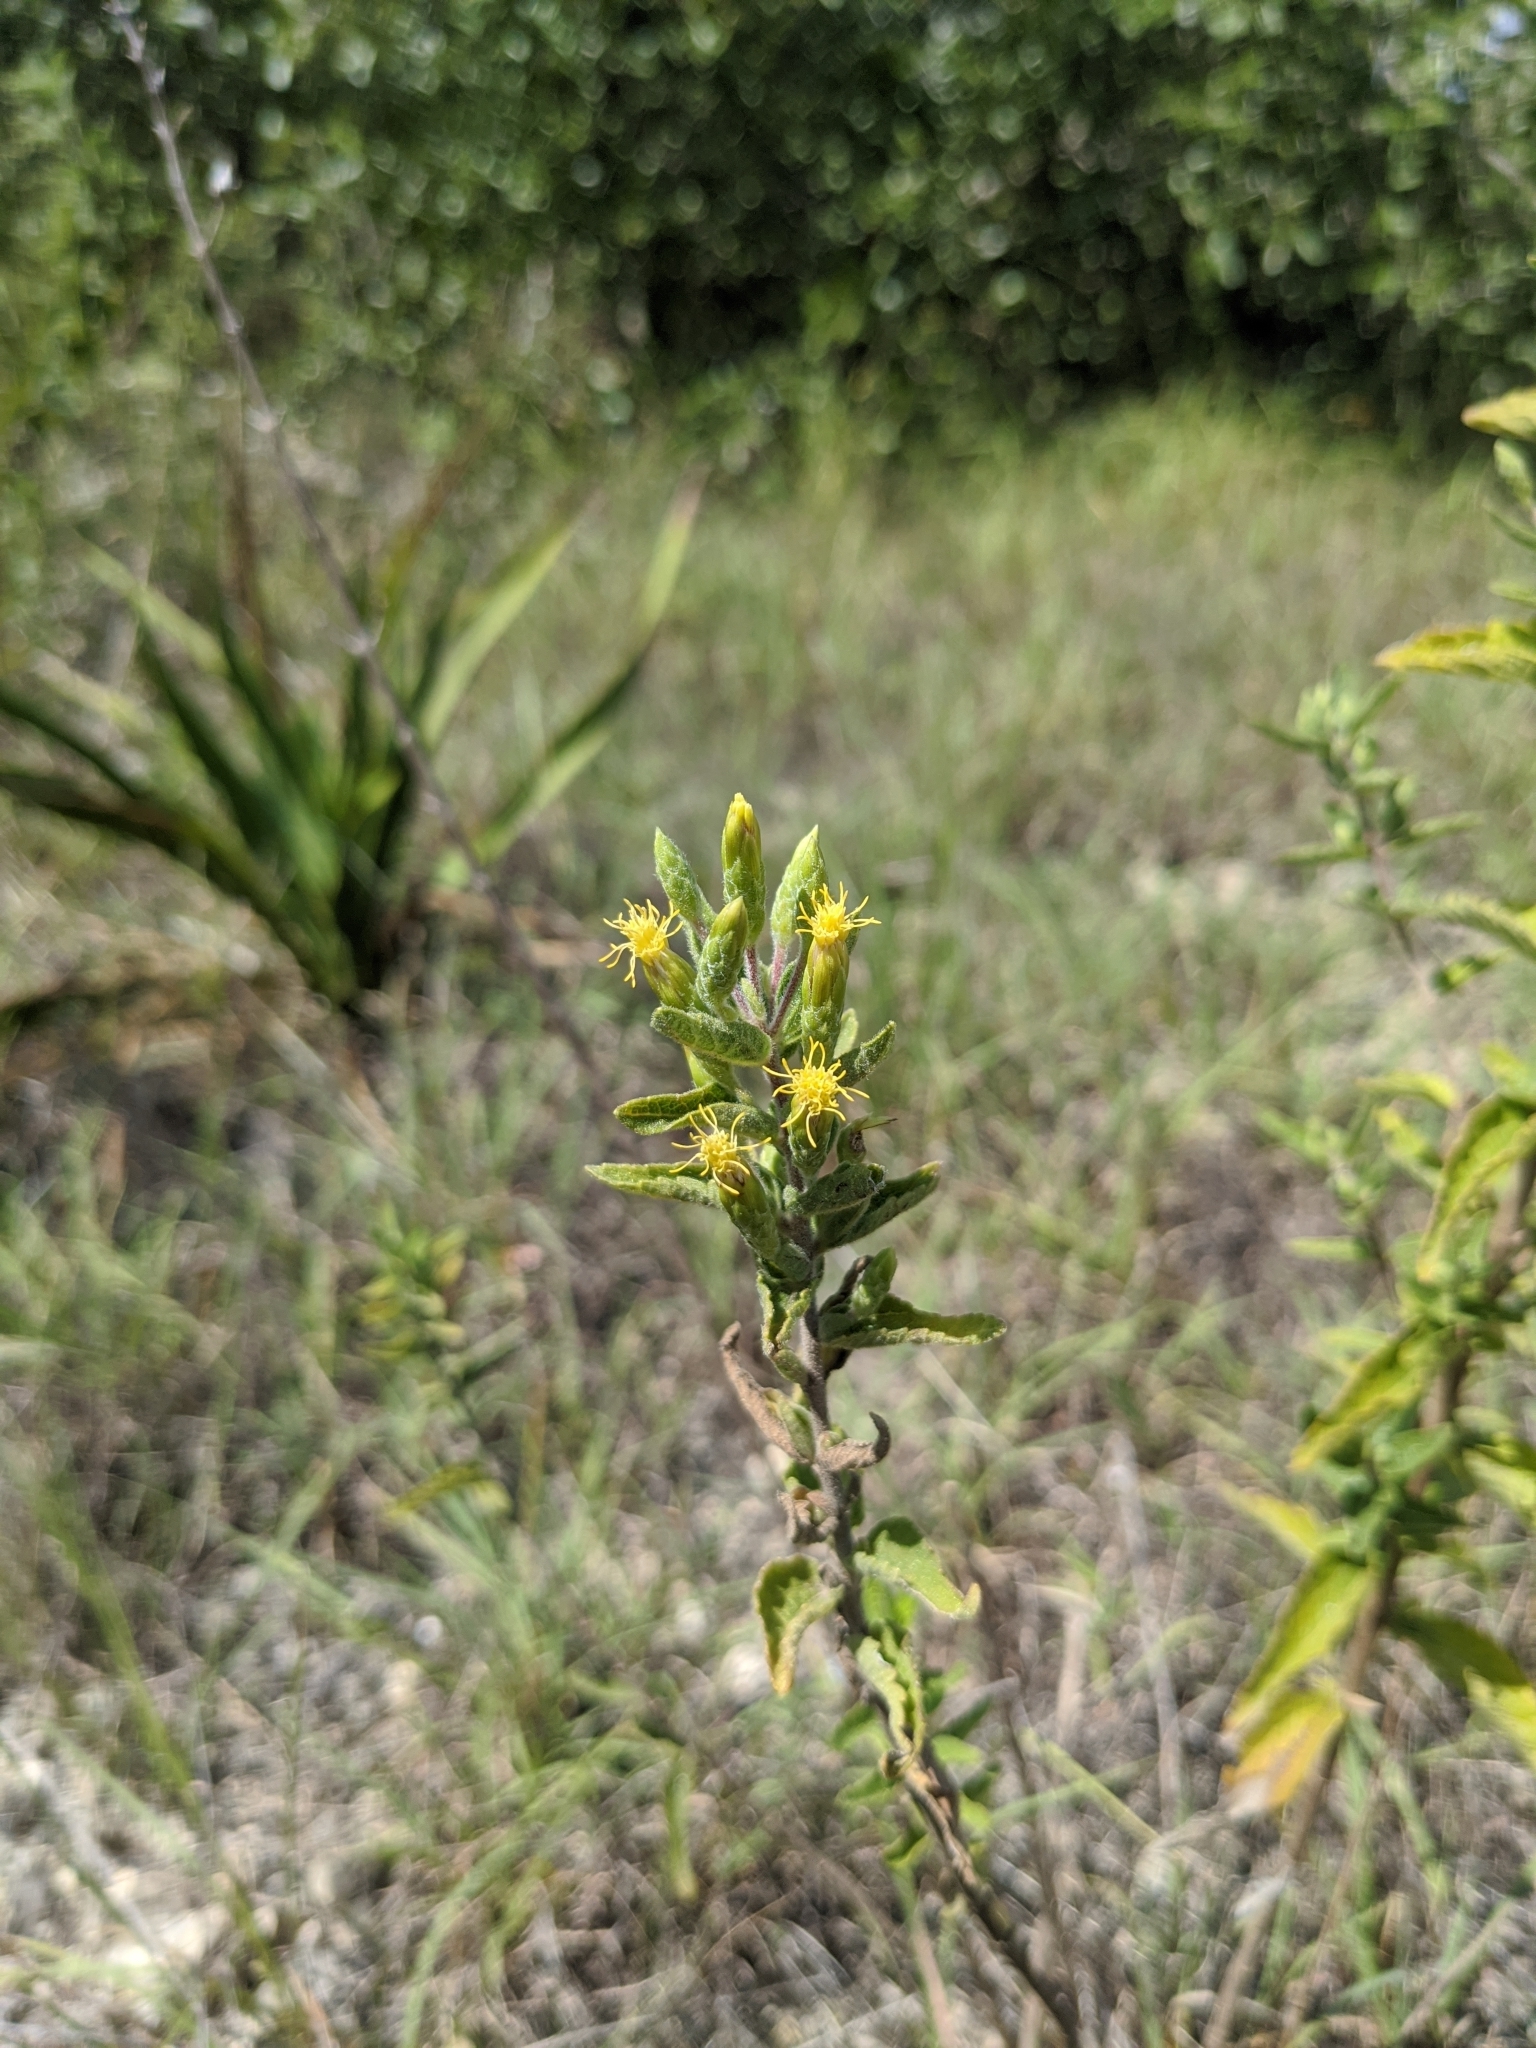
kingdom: Plantae
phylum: Tracheophyta
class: Magnoliopsida
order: Asterales
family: Asteraceae
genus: Brickellia
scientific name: Brickellia cylindracea
